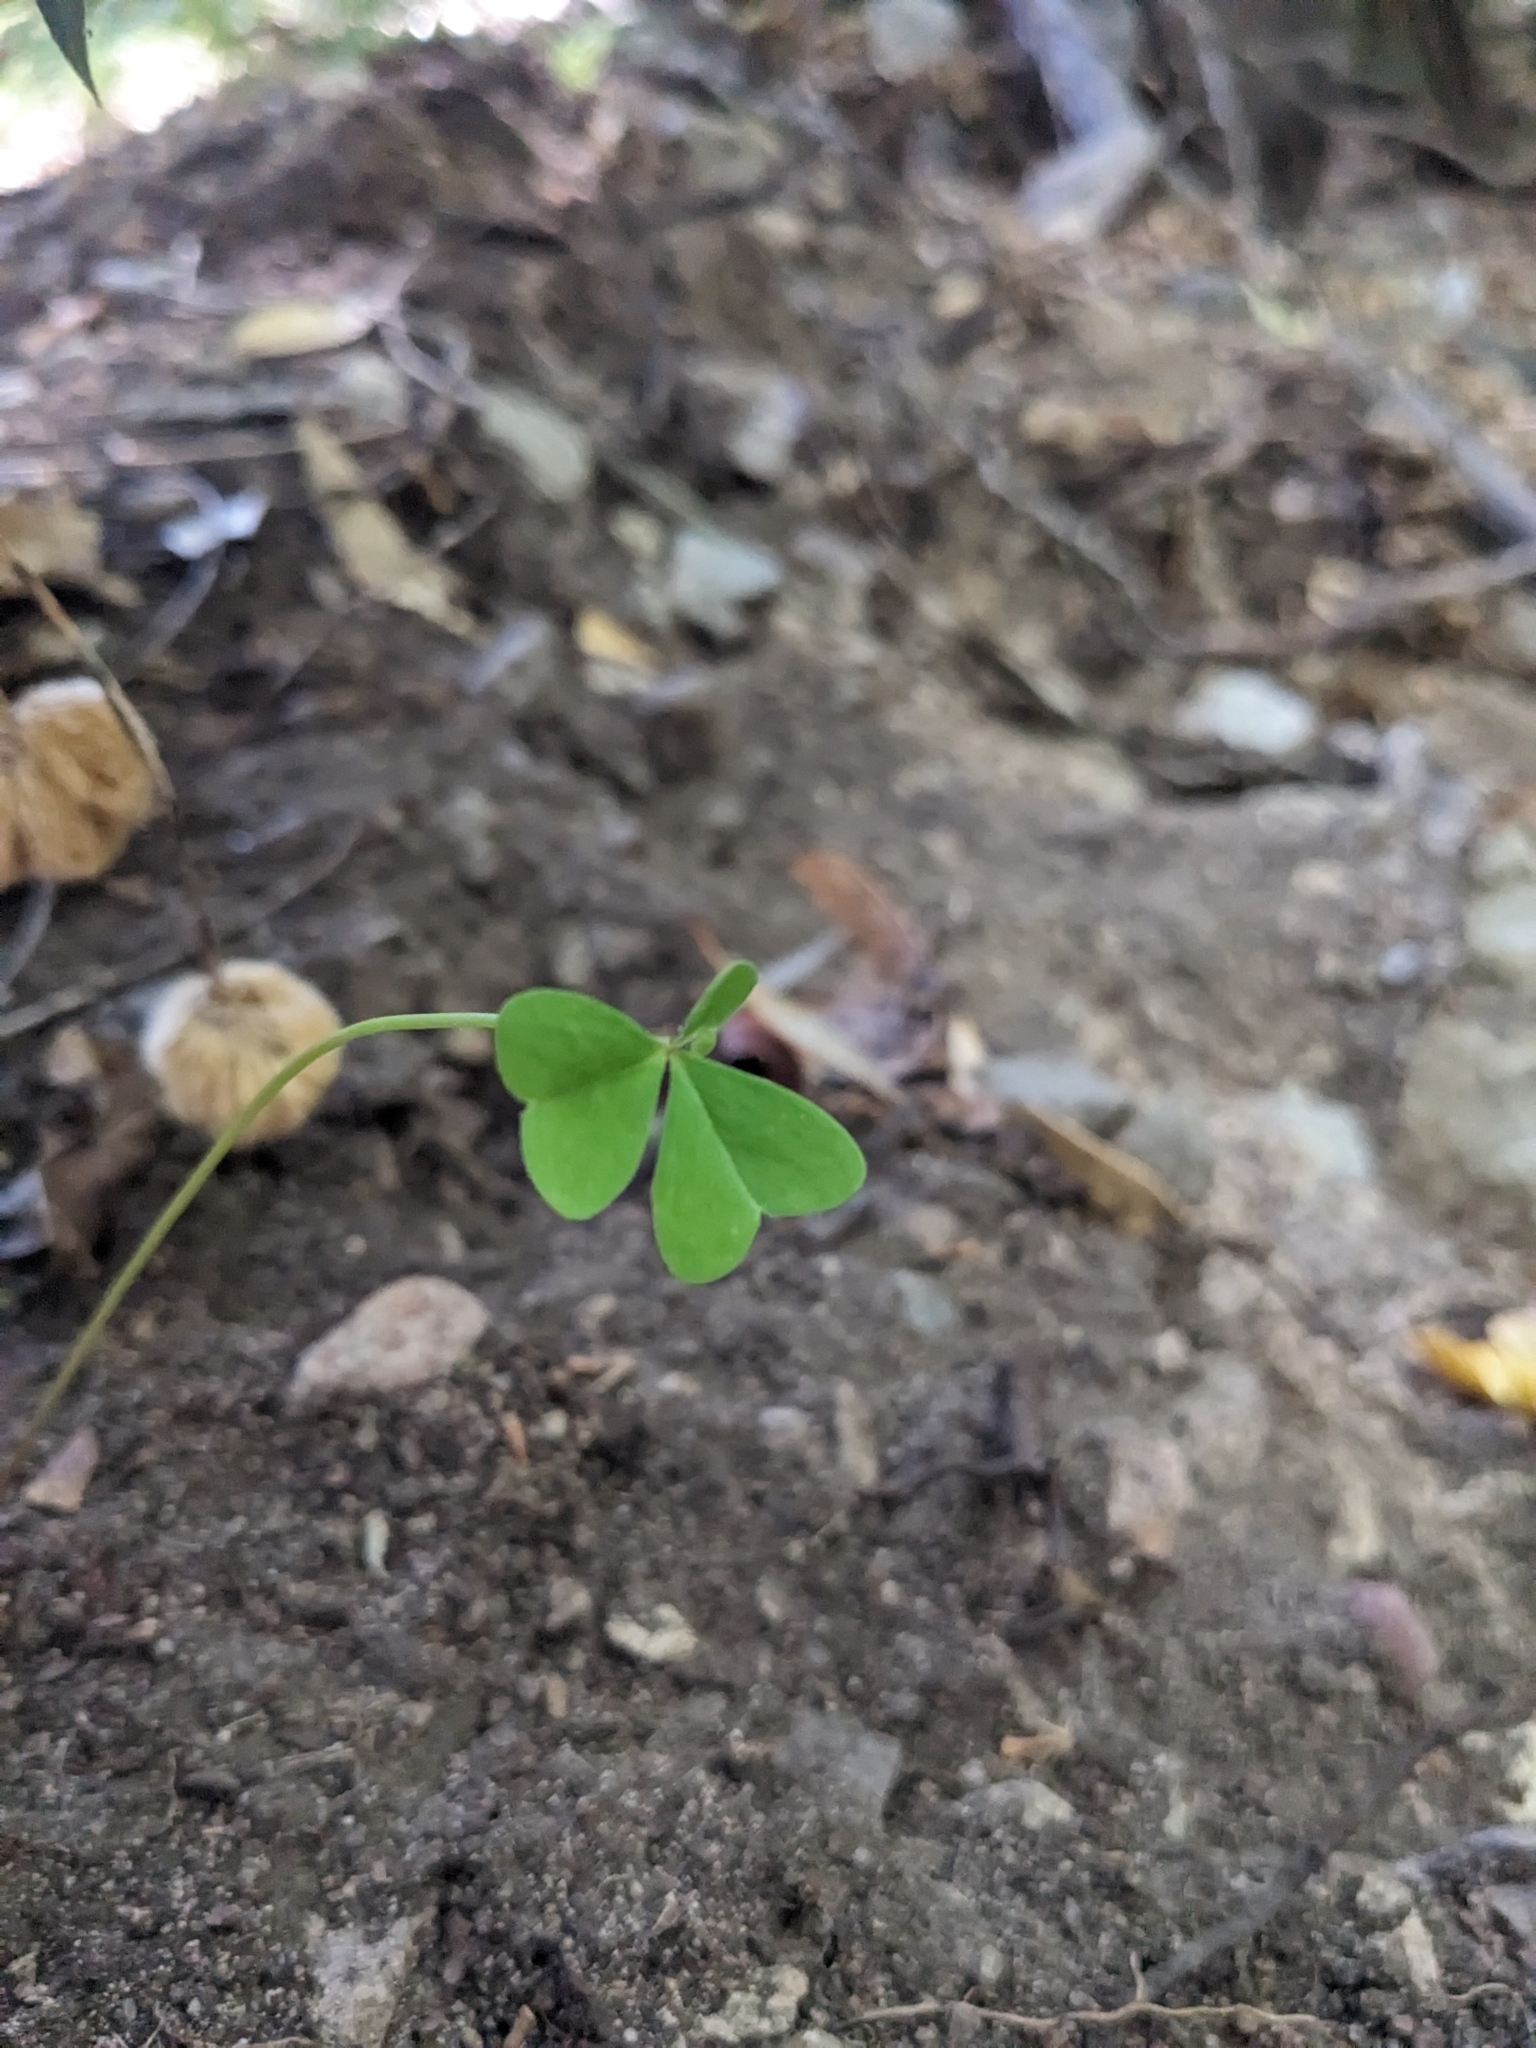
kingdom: Plantae
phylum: Tracheophyta
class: Magnoliopsida
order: Oxalidales
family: Oxalidaceae
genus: Oxalis
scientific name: Oxalis metcalfei
